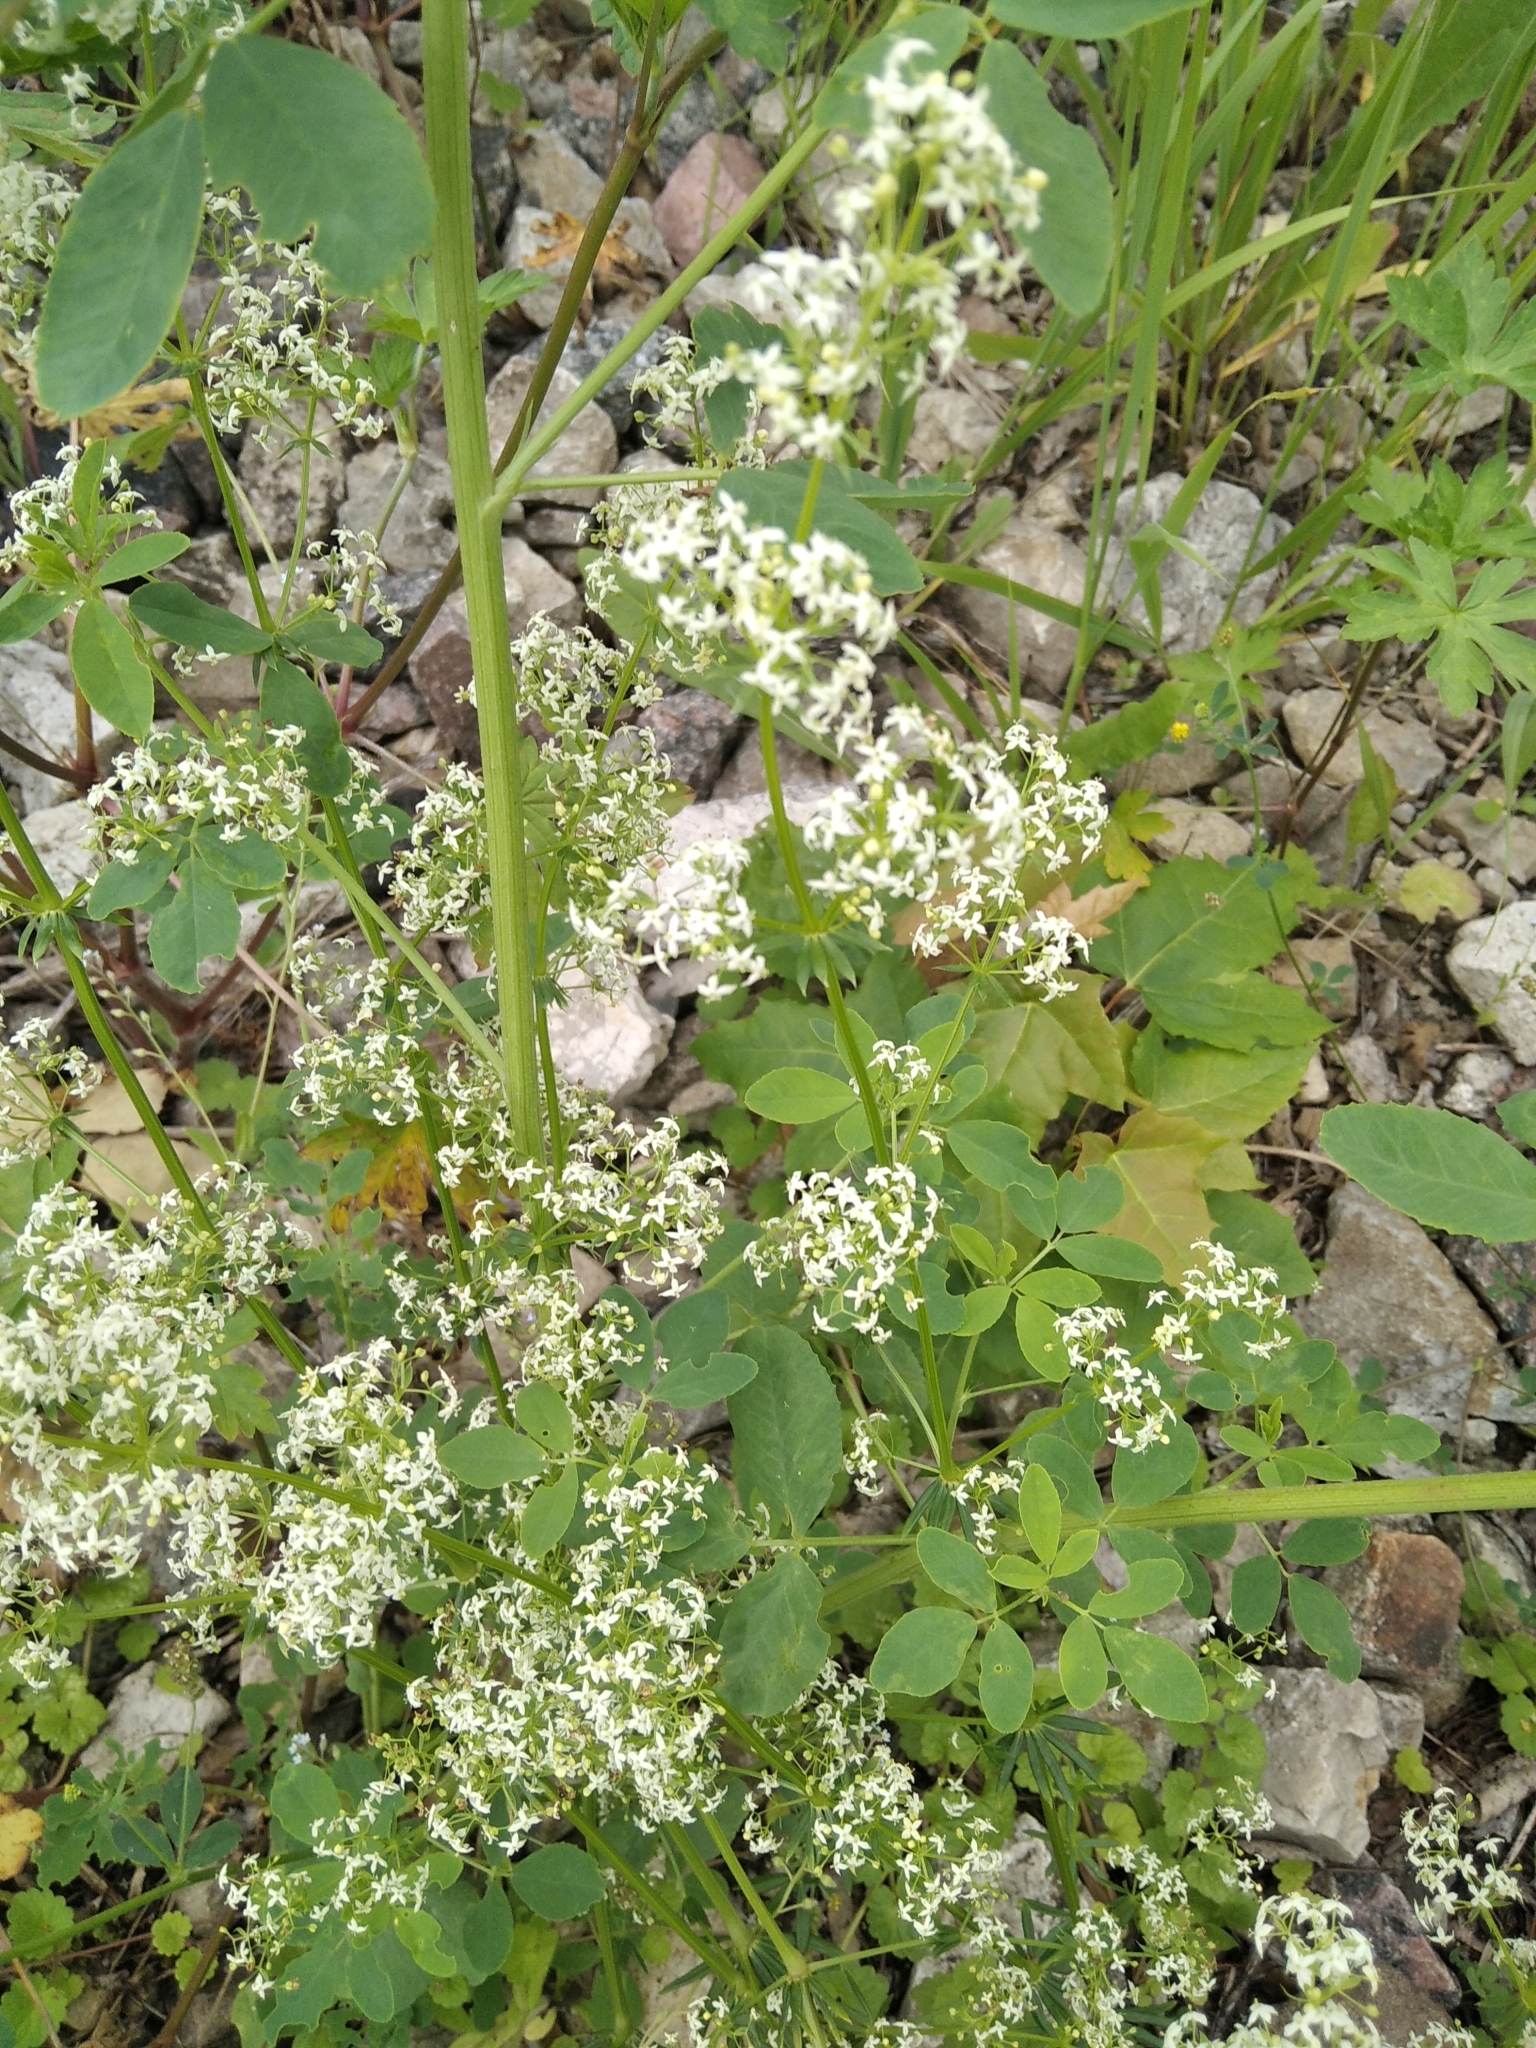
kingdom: Plantae
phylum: Tracheophyta
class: Magnoliopsida
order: Gentianales
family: Rubiaceae
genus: Galium
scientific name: Galium mollugo
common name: Hedge bedstraw
